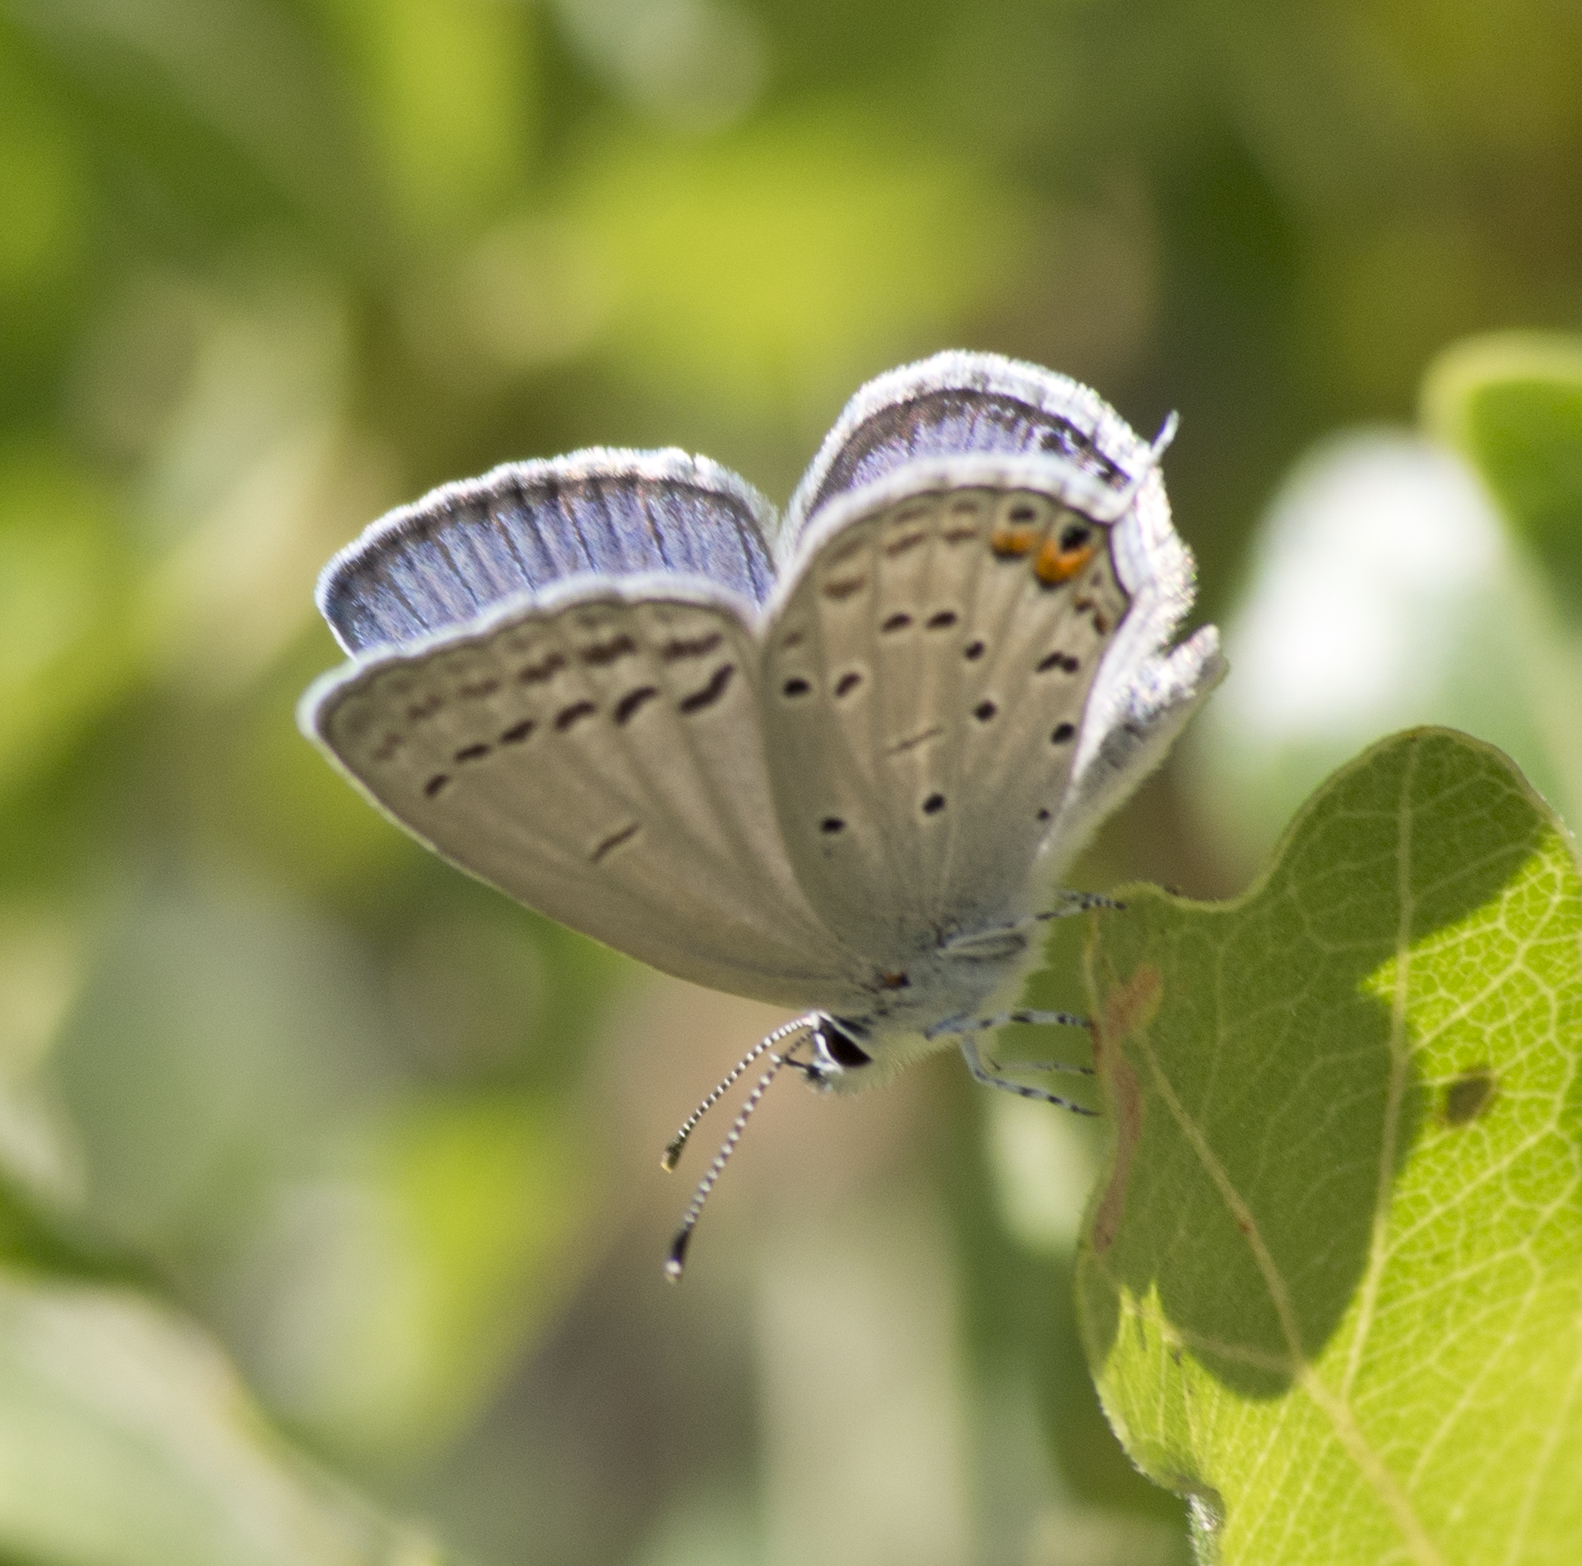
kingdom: Animalia
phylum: Arthropoda
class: Insecta
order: Lepidoptera
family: Lycaenidae
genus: Elkalyce
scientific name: Elkalyce amyntula
